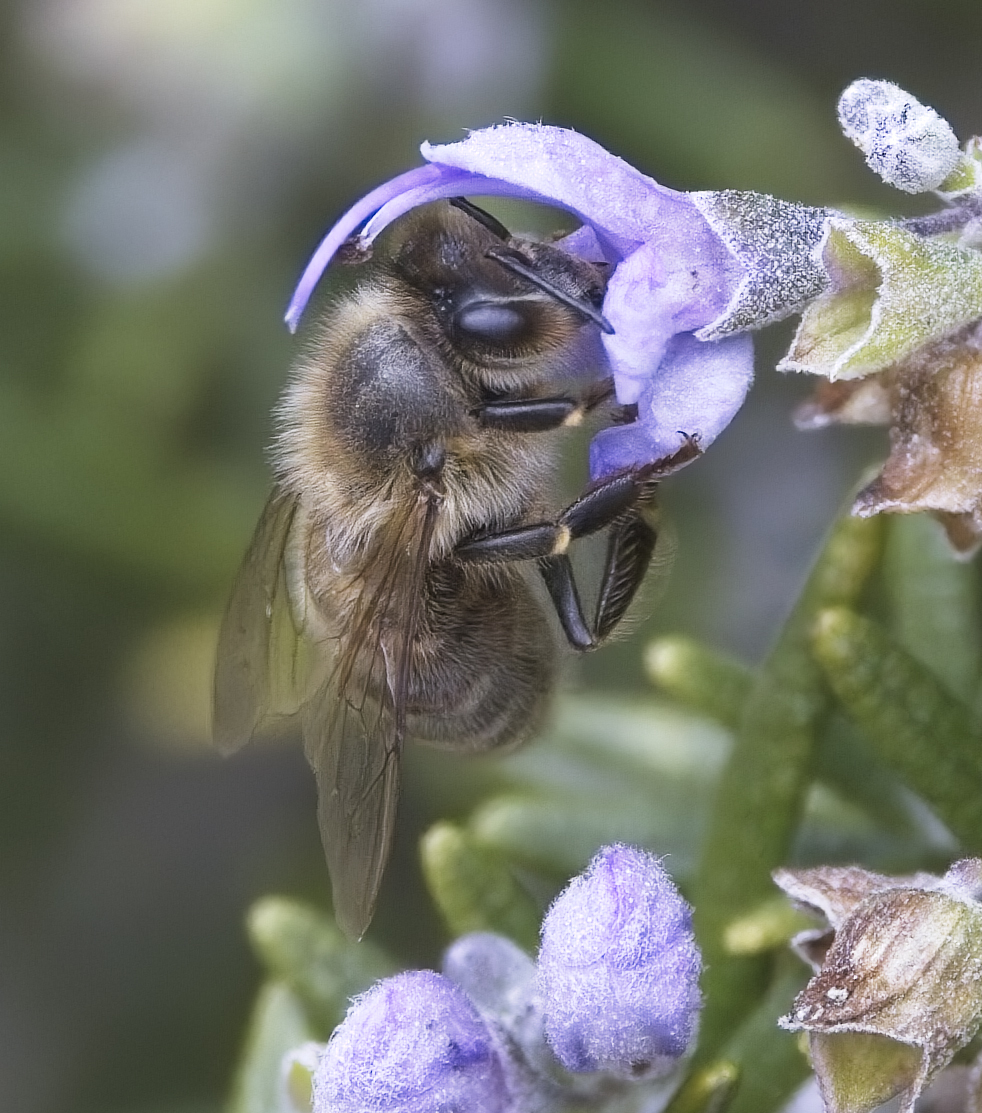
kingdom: Animalia
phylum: Arthropoda
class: Insecta
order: Hymenoptera
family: Apidae
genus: Apis
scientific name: Apis mellifera
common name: Honey bee
